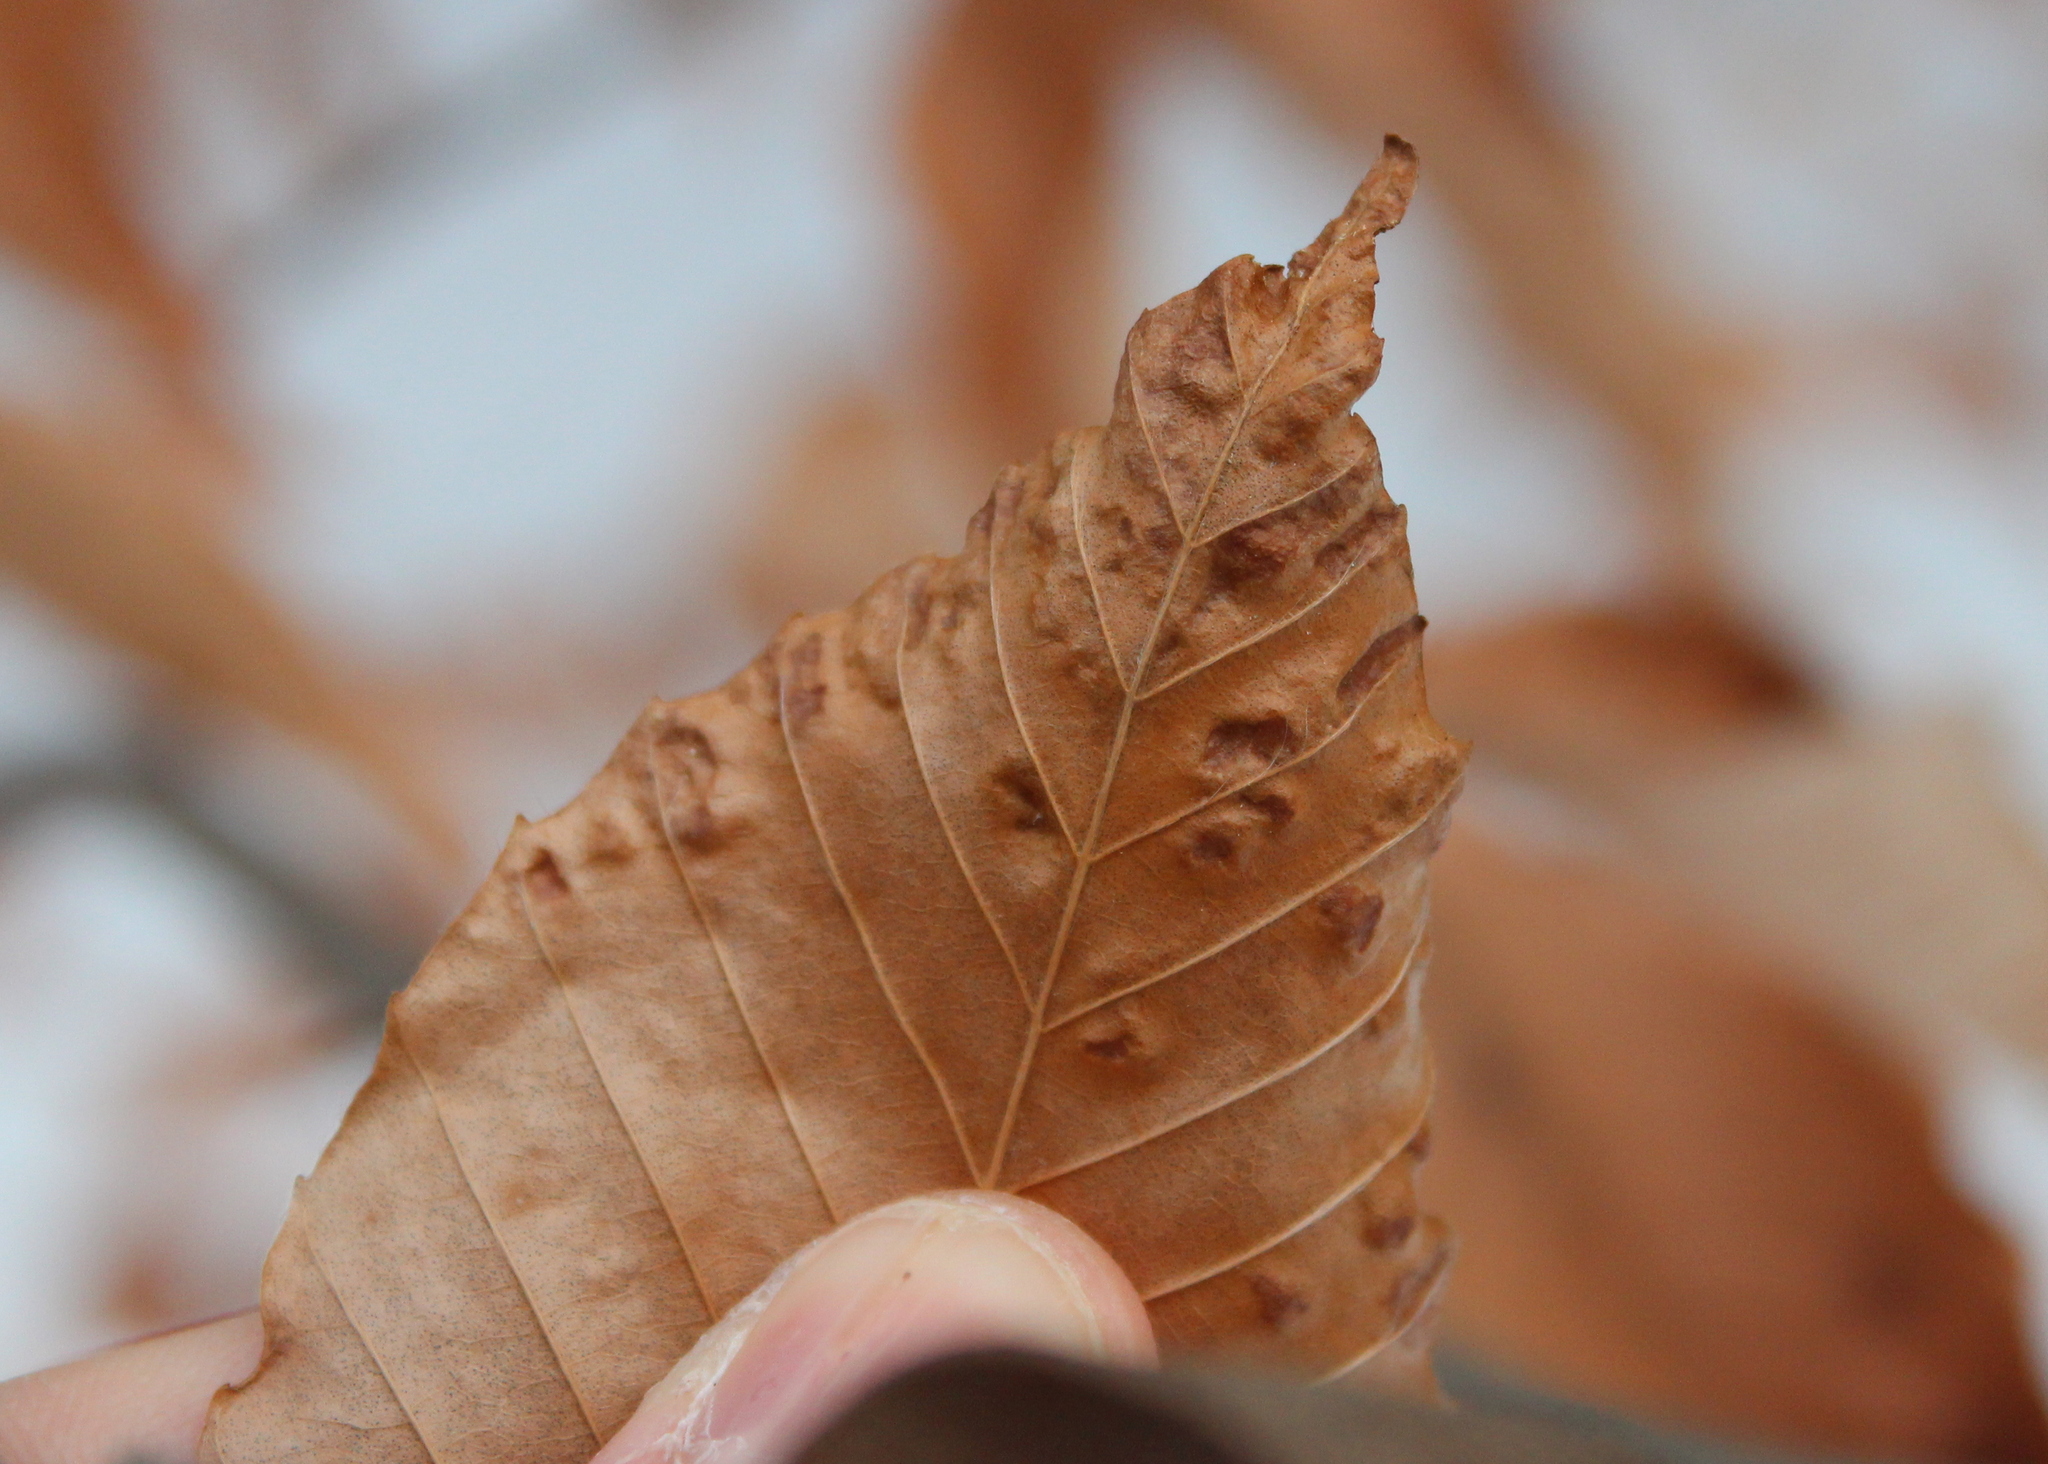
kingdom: Animalia
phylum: Arthropoda
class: Arachnida
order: Trombidiformes
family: Eriophyidae
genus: Acalitus
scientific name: Acalitus
